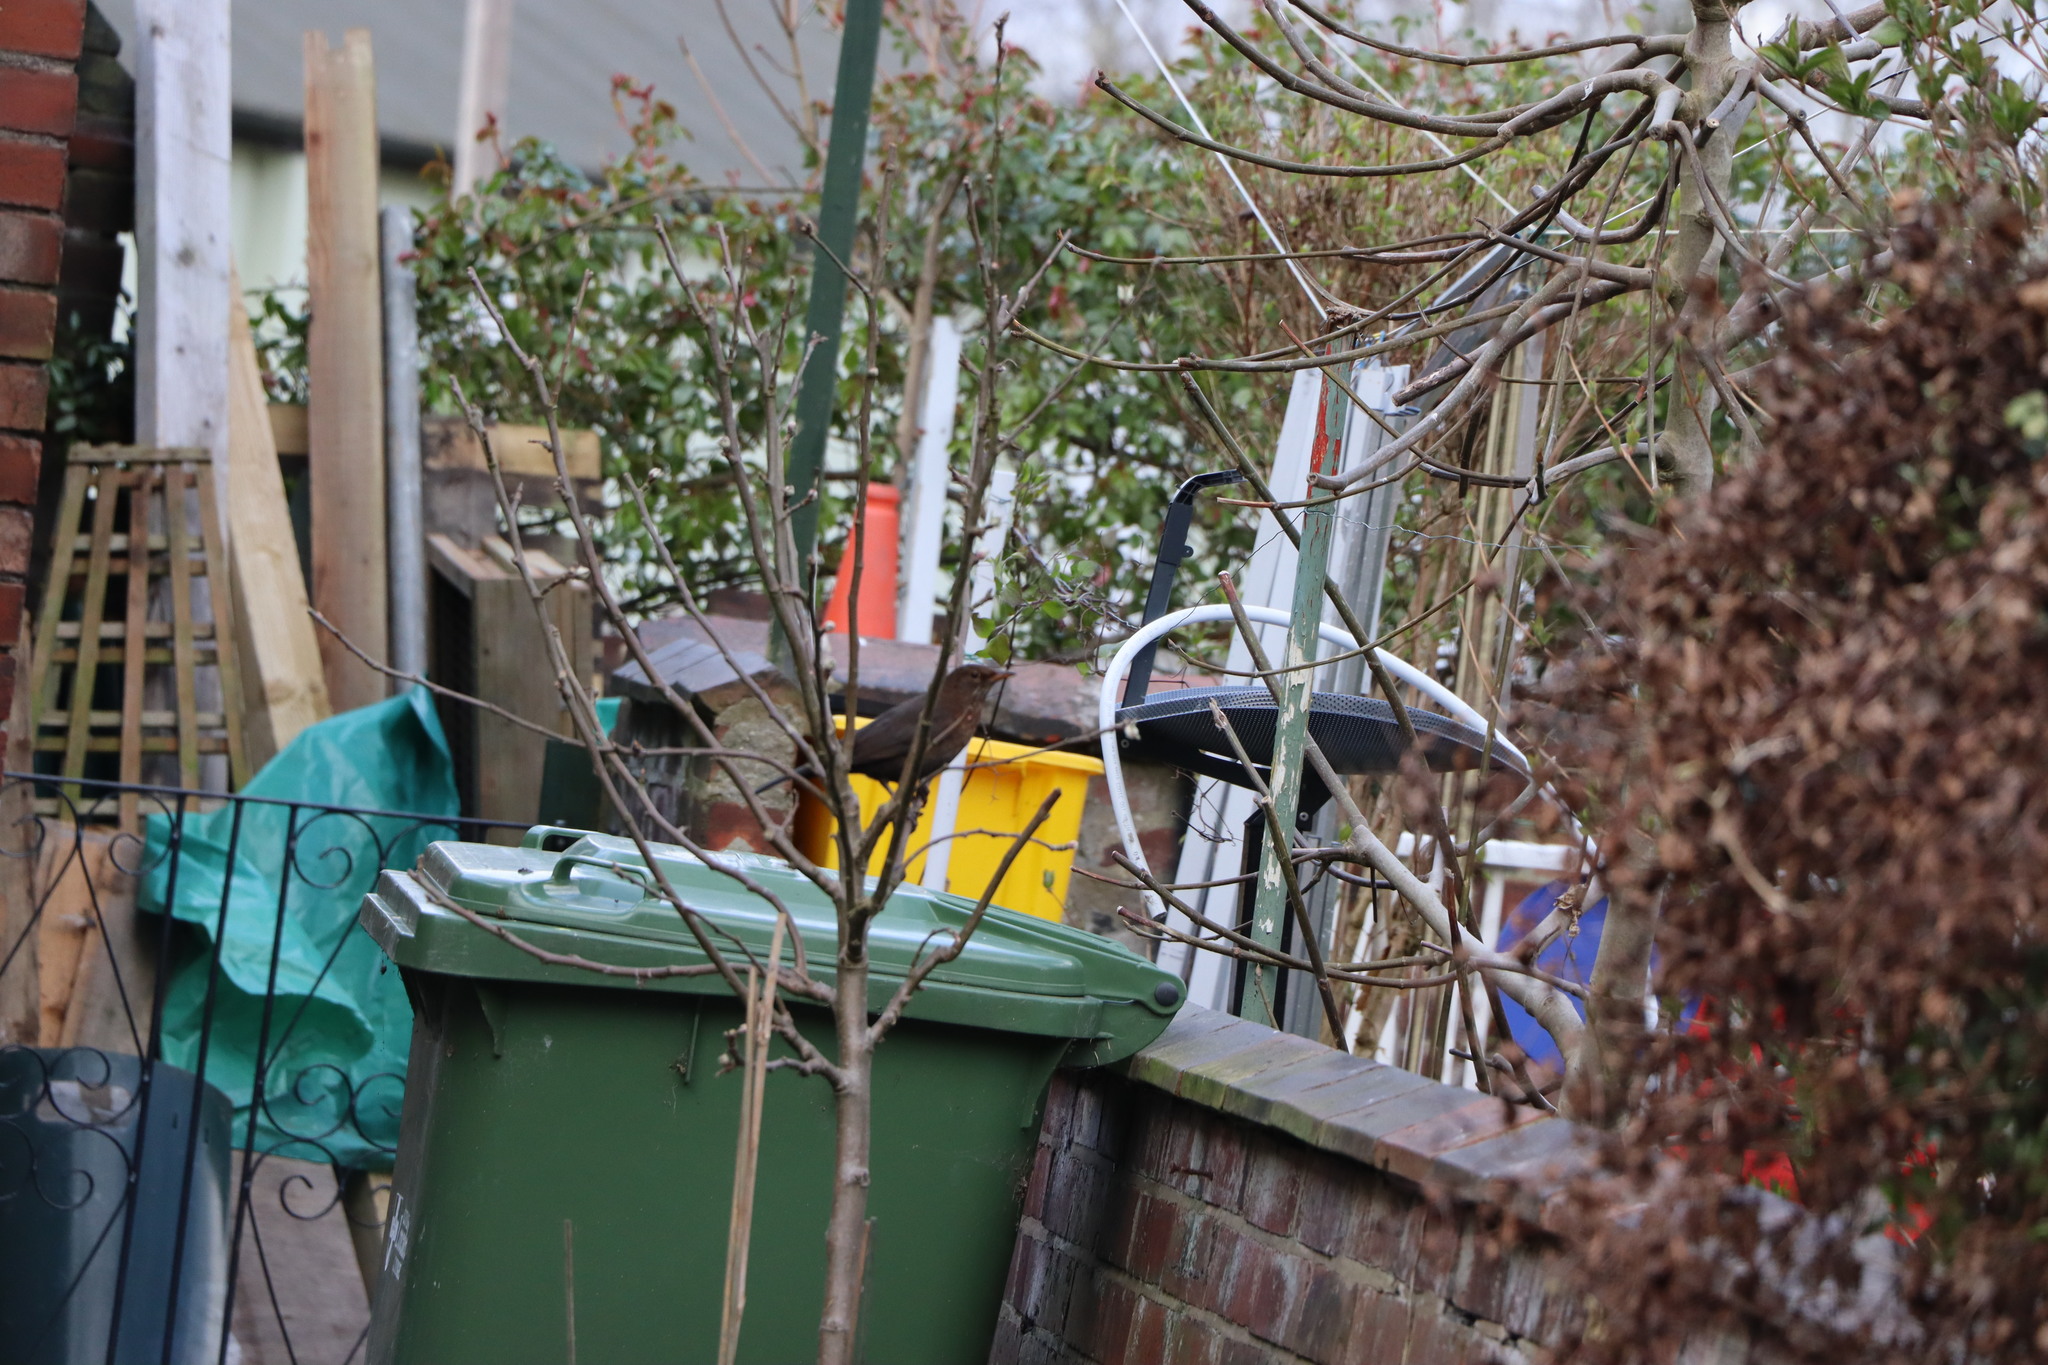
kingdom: Animalia
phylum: Chordata
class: Aves
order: Passeriformes
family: Turdidae
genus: Turdus
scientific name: Turdus merula
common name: Common blackbird
